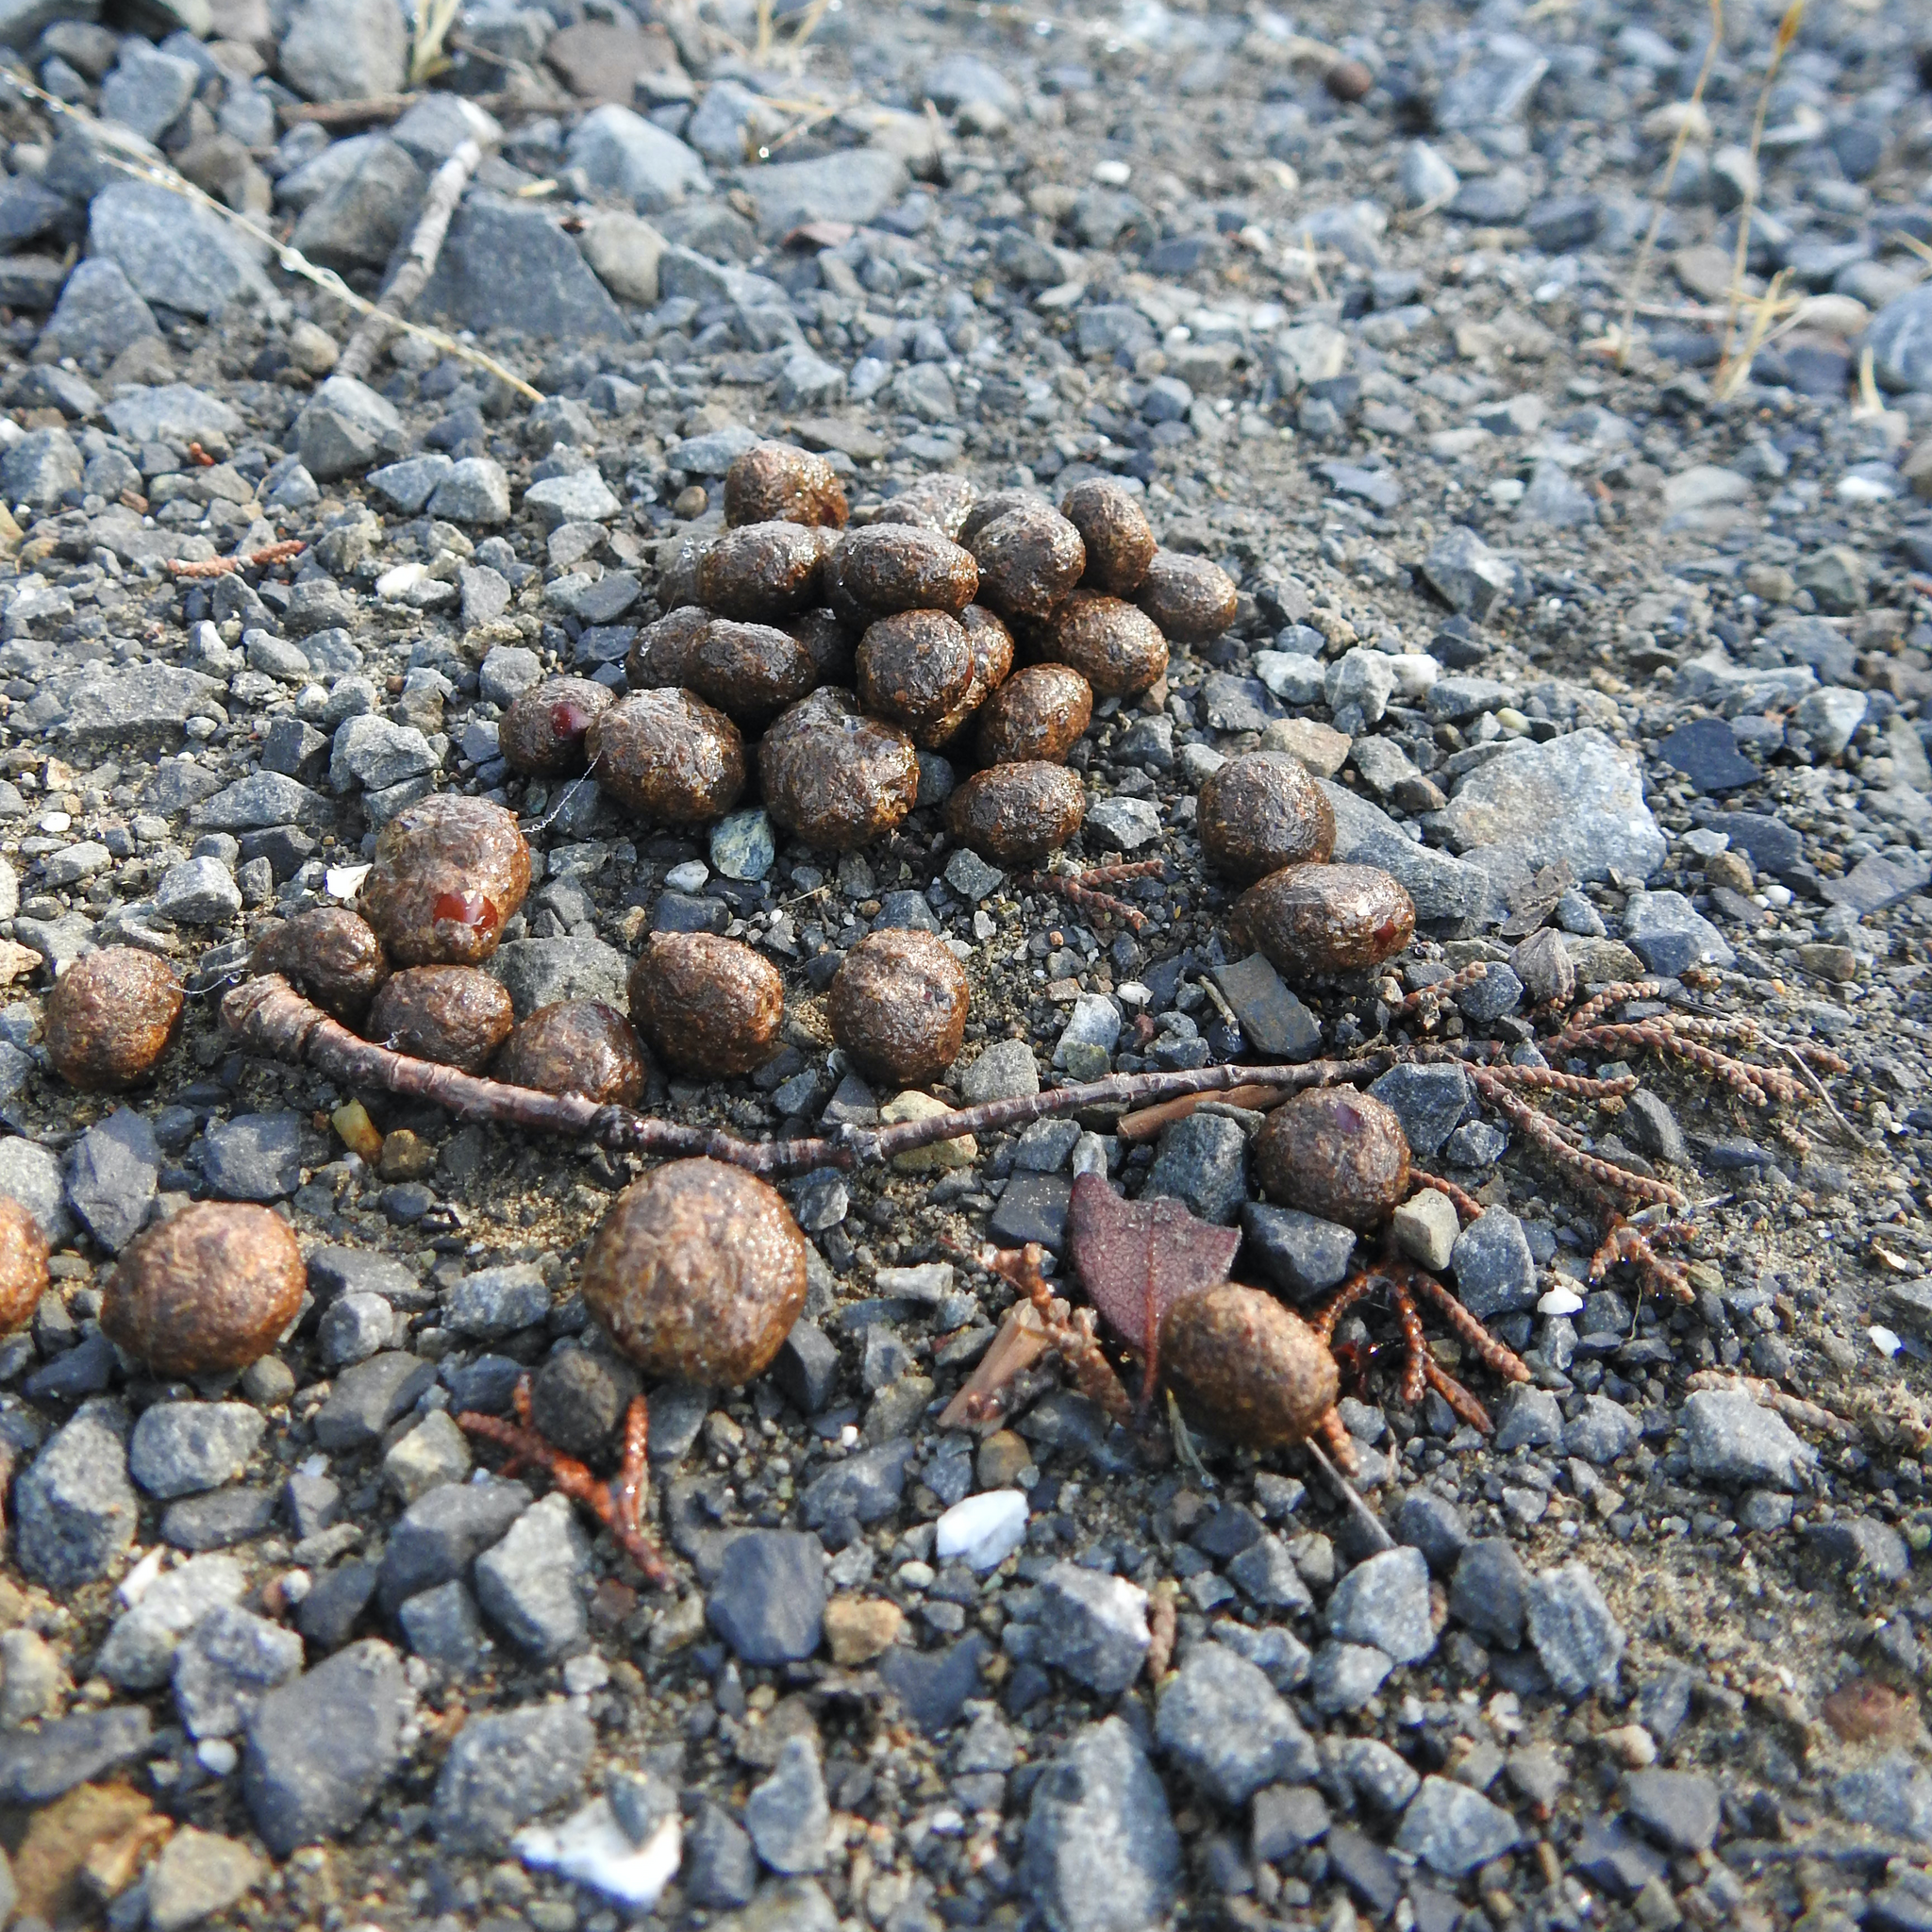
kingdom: Animalia
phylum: Chordata
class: Mammalia
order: Artiodactyla
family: Cervidae
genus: Odocoileus
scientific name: Odocoileus hemionus
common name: Mule deer
